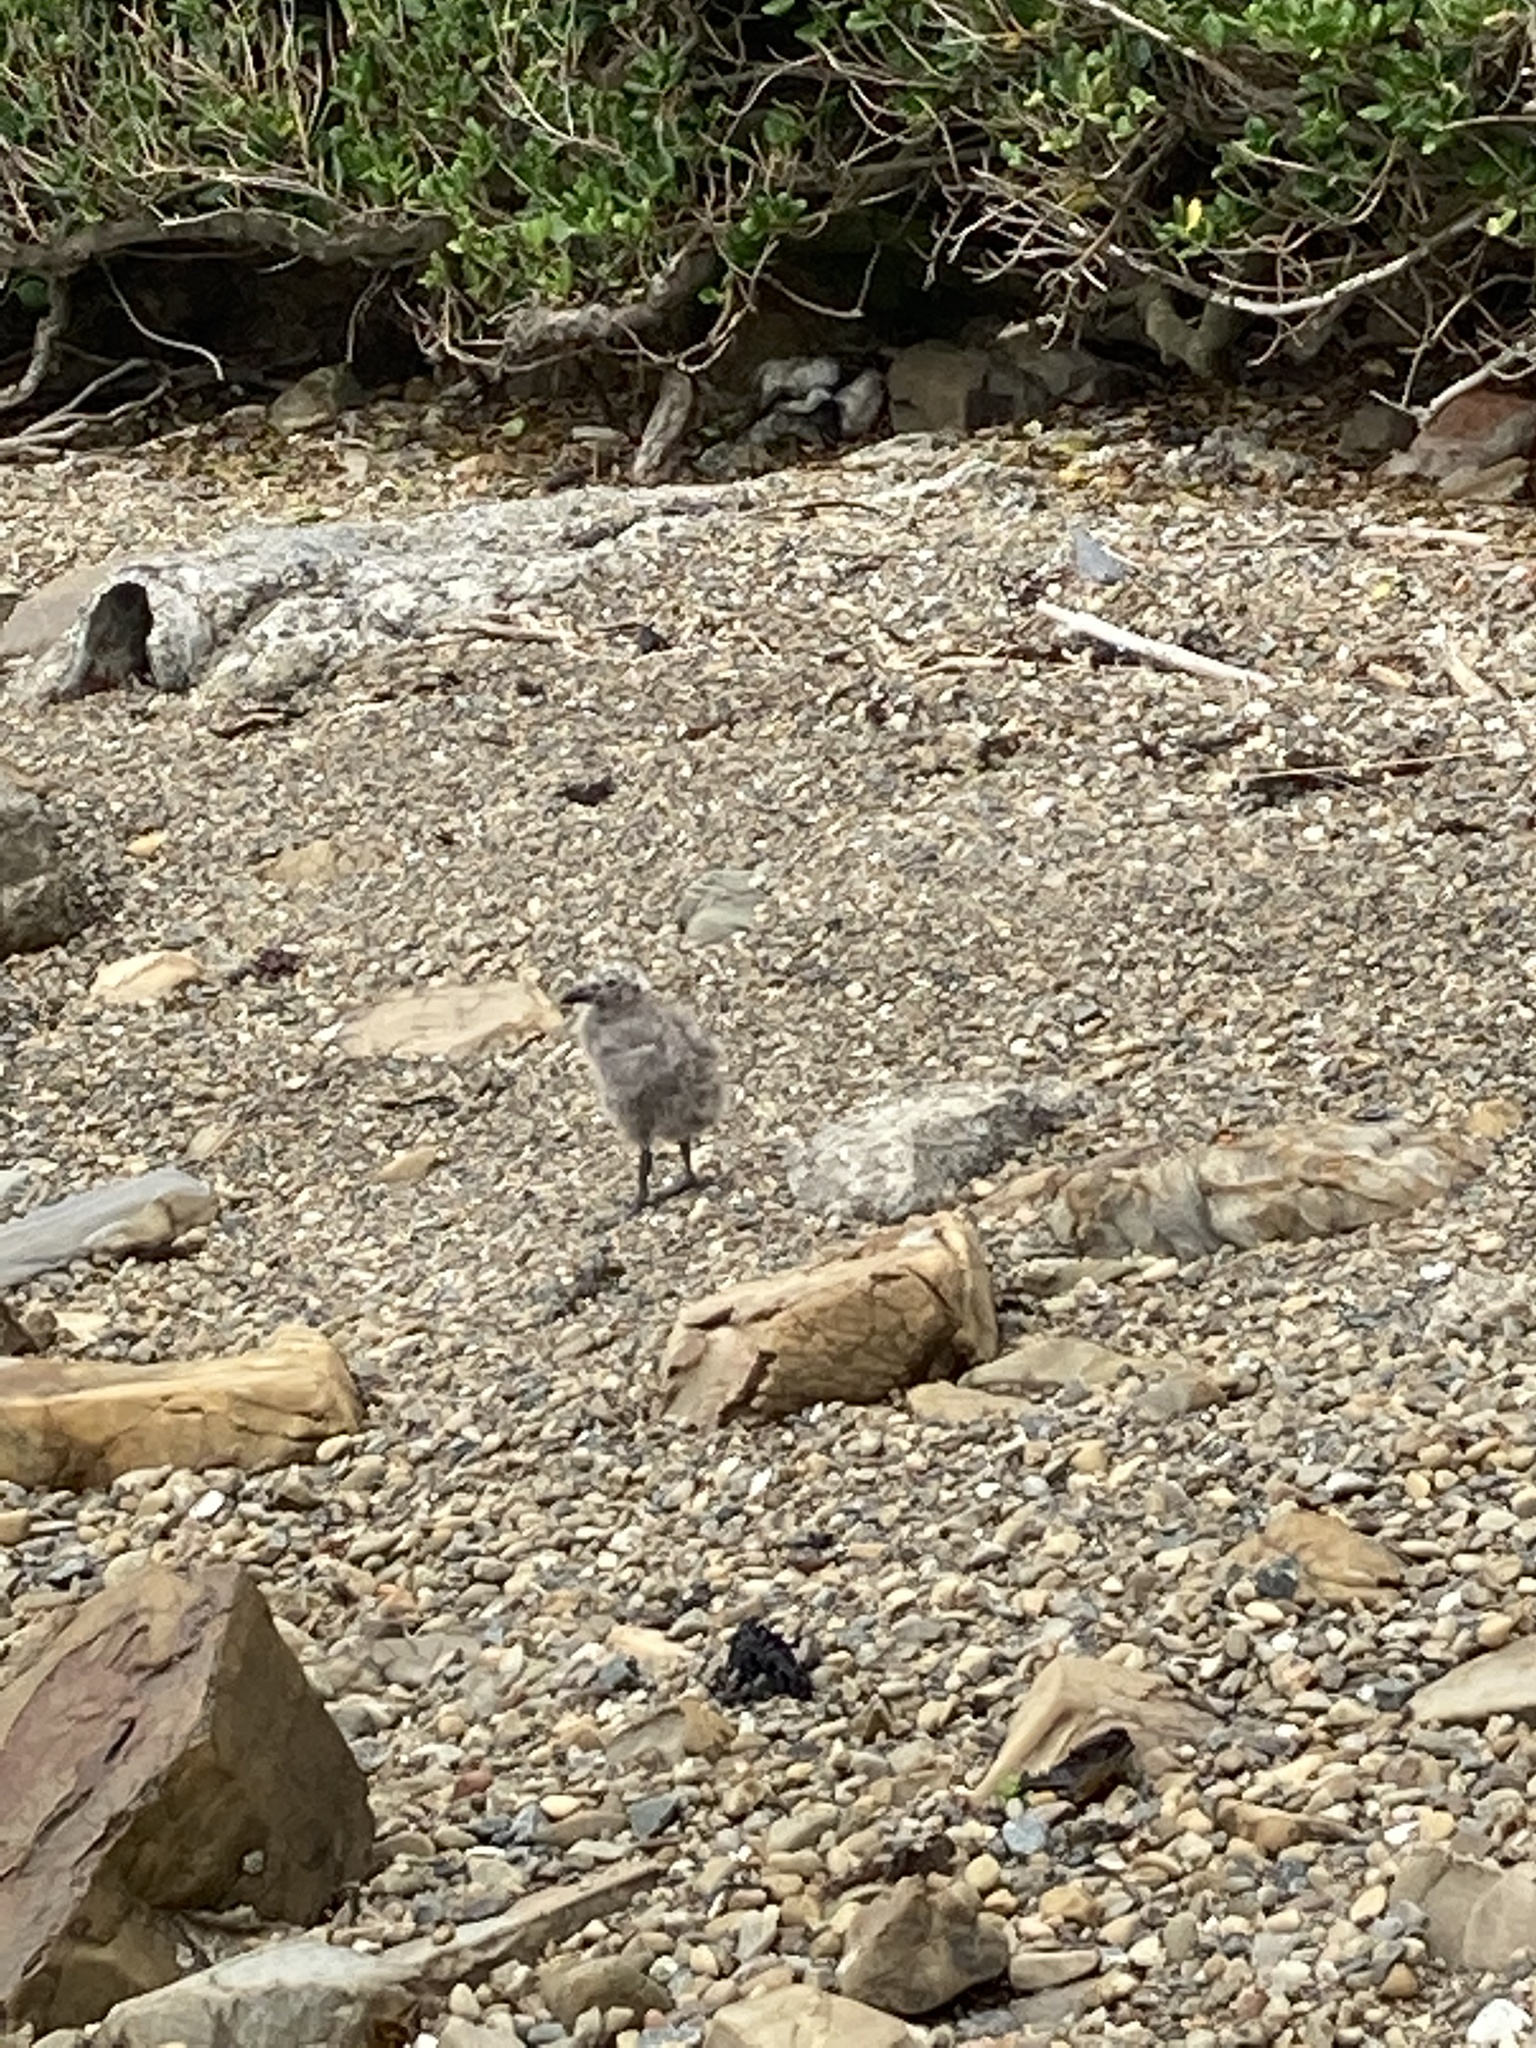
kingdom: Animalia
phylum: Chordata
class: Aves
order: Charadriiformes
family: Laridae
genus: Larus
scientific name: Larus dominicanus
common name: Kelp gull
